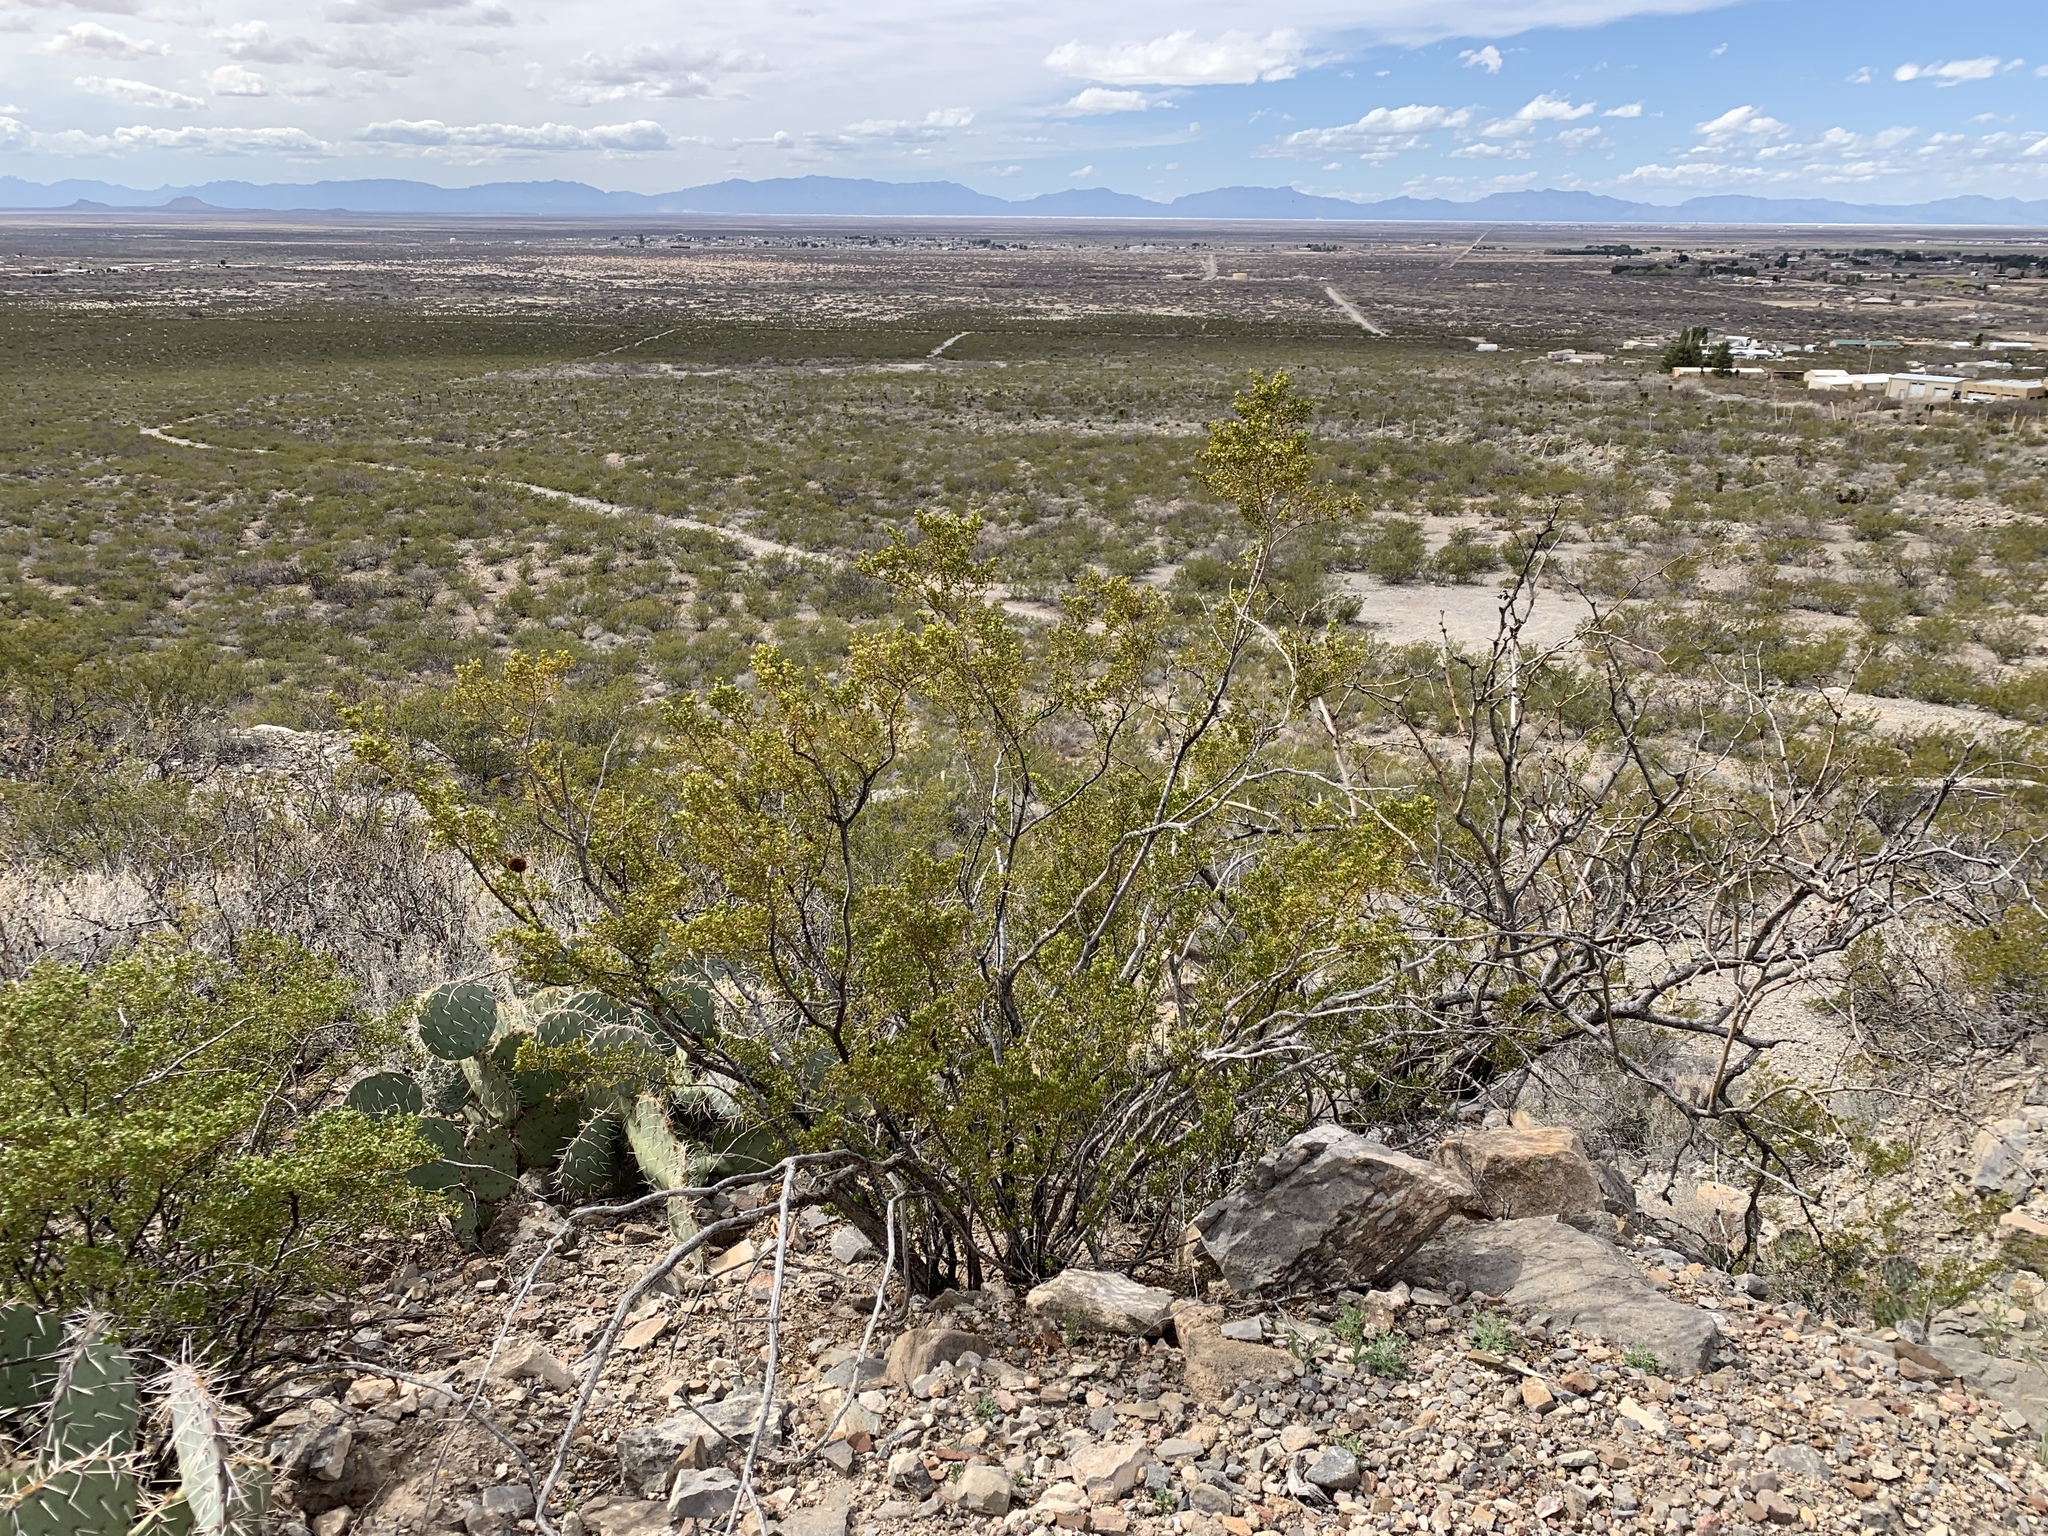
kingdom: Plantae
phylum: Tracheophyta
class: Magnoliopsida
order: Zygophyllales
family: Zygophyllaceae
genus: Larrea
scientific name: Larrea tridentata
